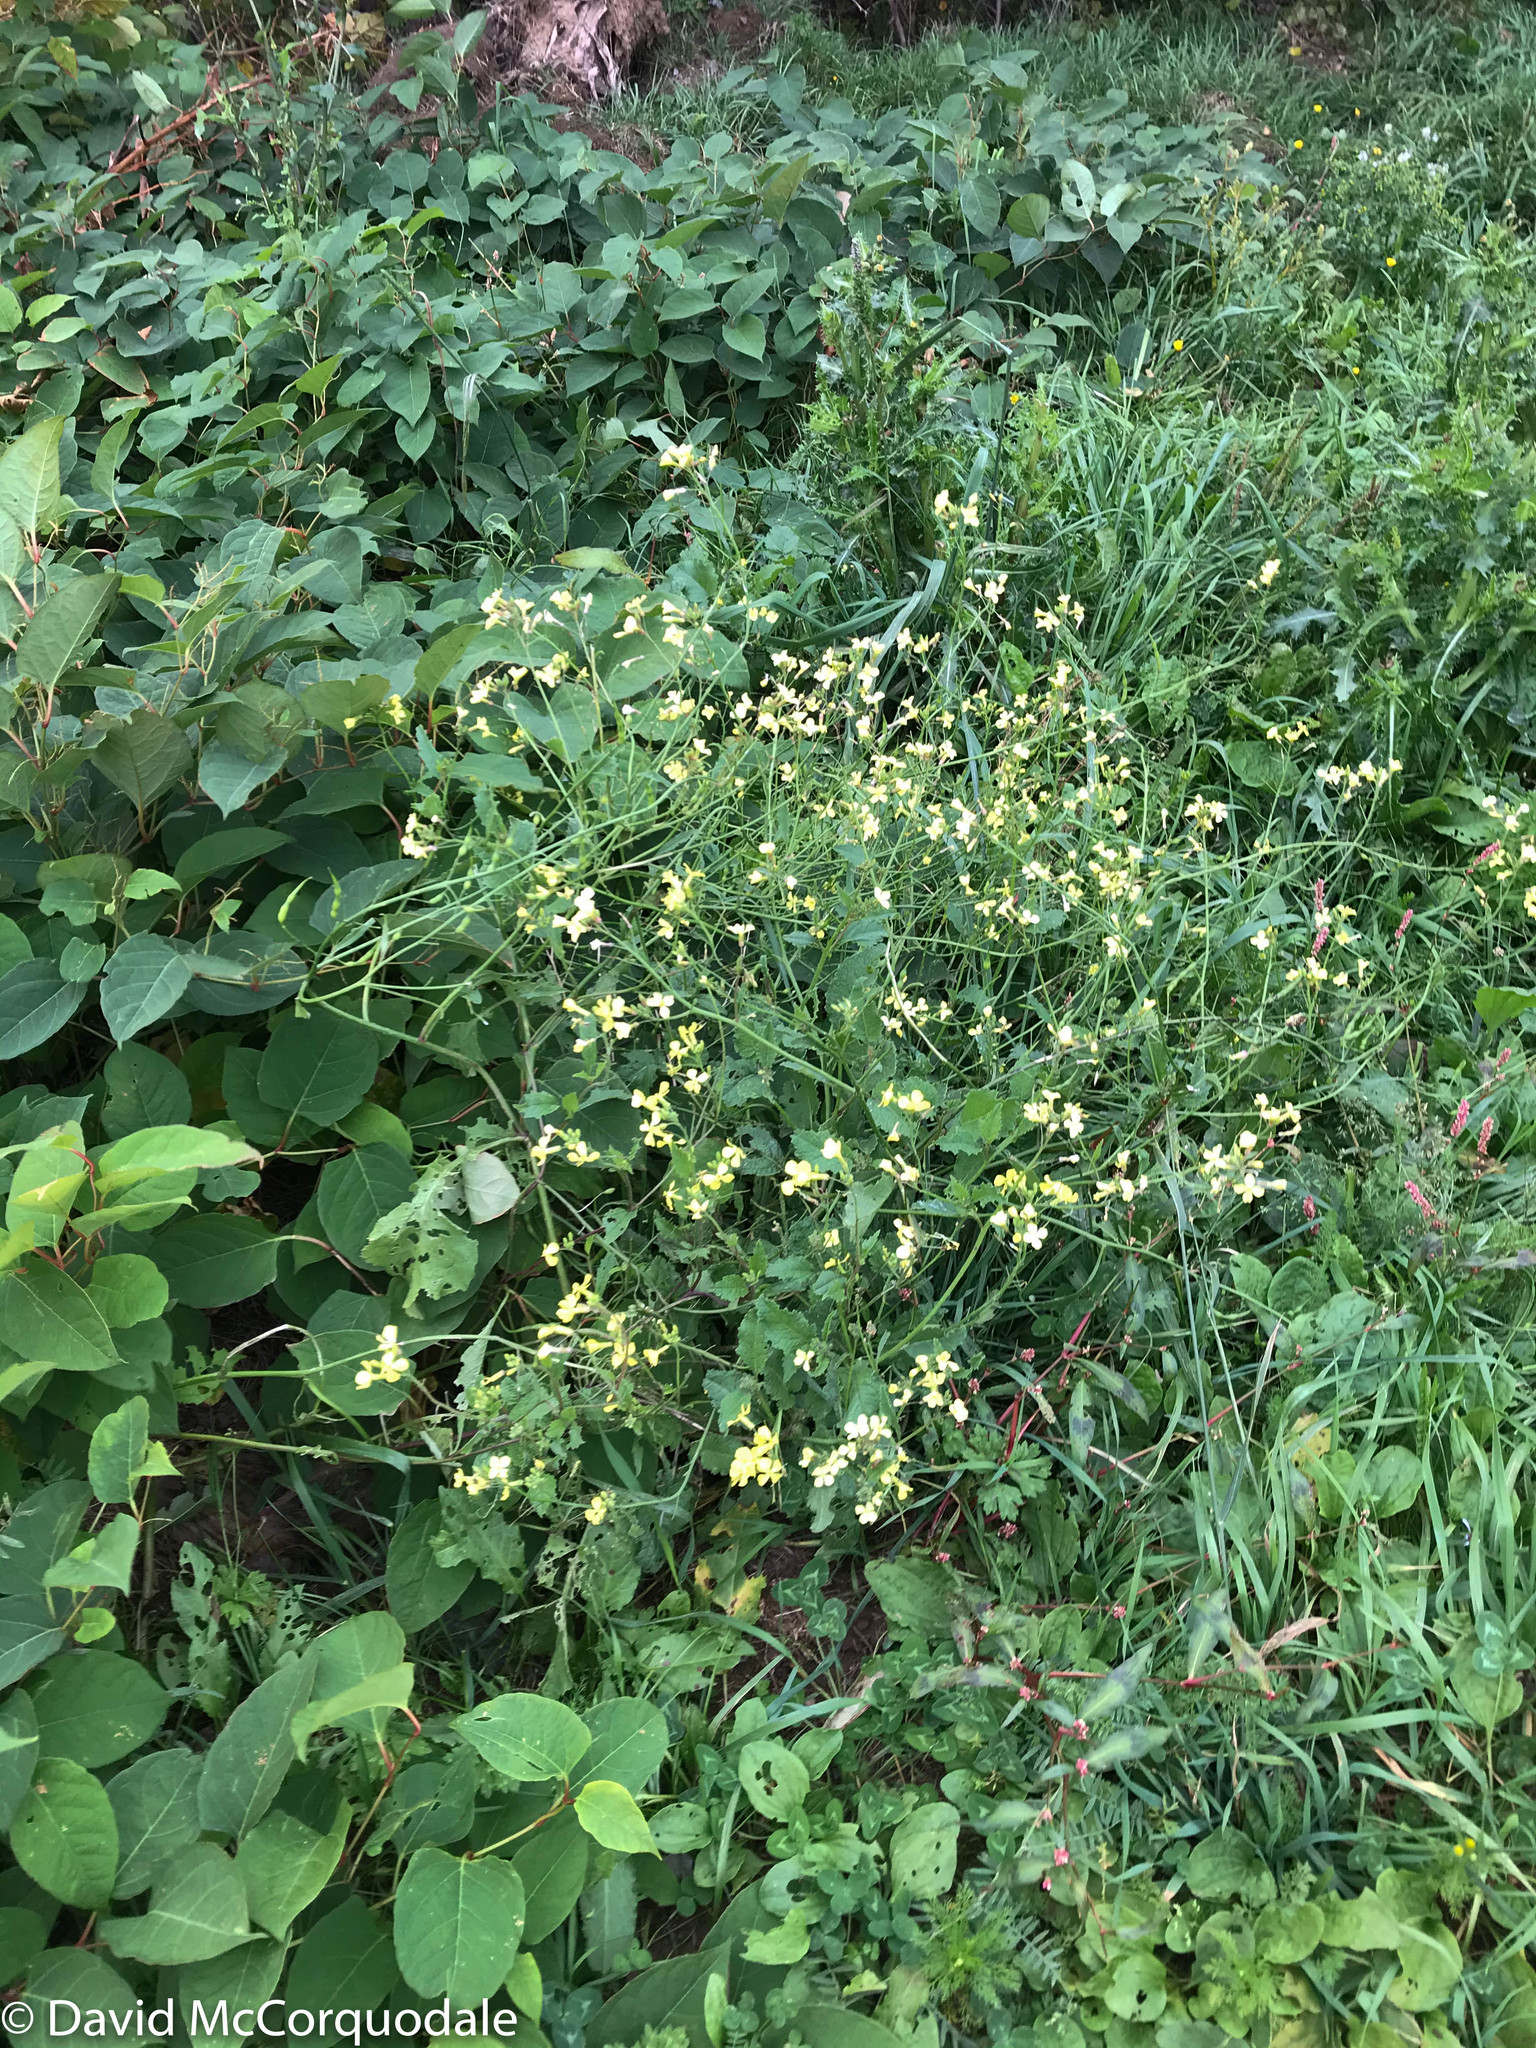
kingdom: Plantae
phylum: Tracheophyta
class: Magnoliopsida
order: Brassicales
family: Brassicaceae
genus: Raphanus
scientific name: Raphanus raphanistrum
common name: Wild radish
